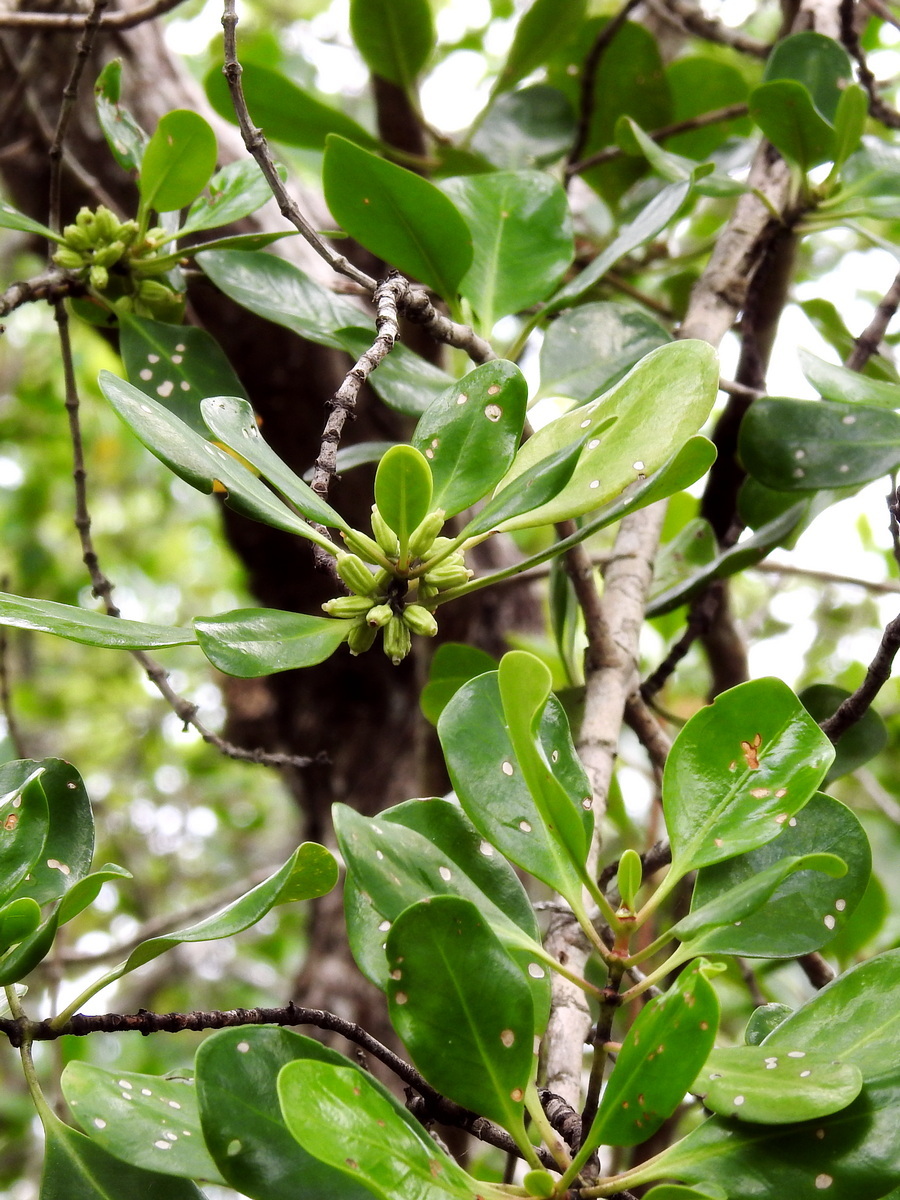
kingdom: Plantae
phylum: Tracheophyta
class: Magnoliopsida
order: Gentianales
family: Rubiaceae
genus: Scyphiphora
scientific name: Scyphiphora hydrophylacea
